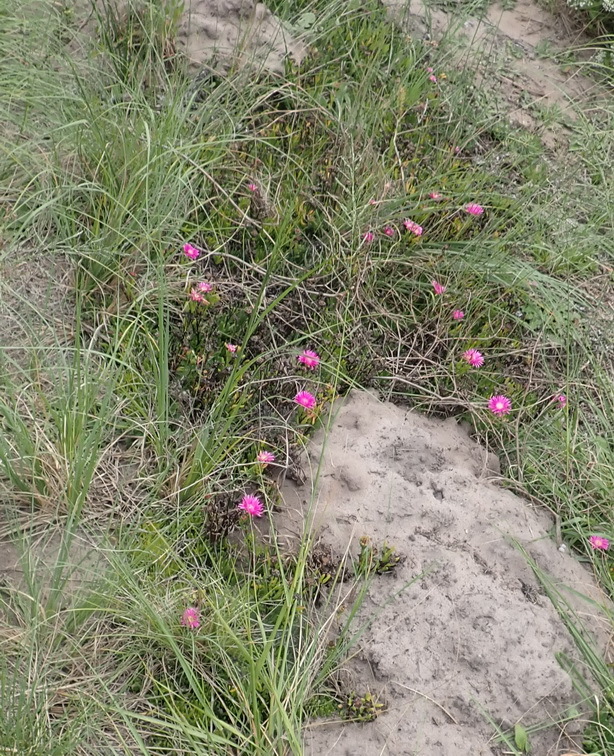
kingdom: Plantae
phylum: Tracheophyta
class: Magnoliopsida
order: Caryophyllales
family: Aizoaceae
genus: Ruschia
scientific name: Ruschia duthiae
